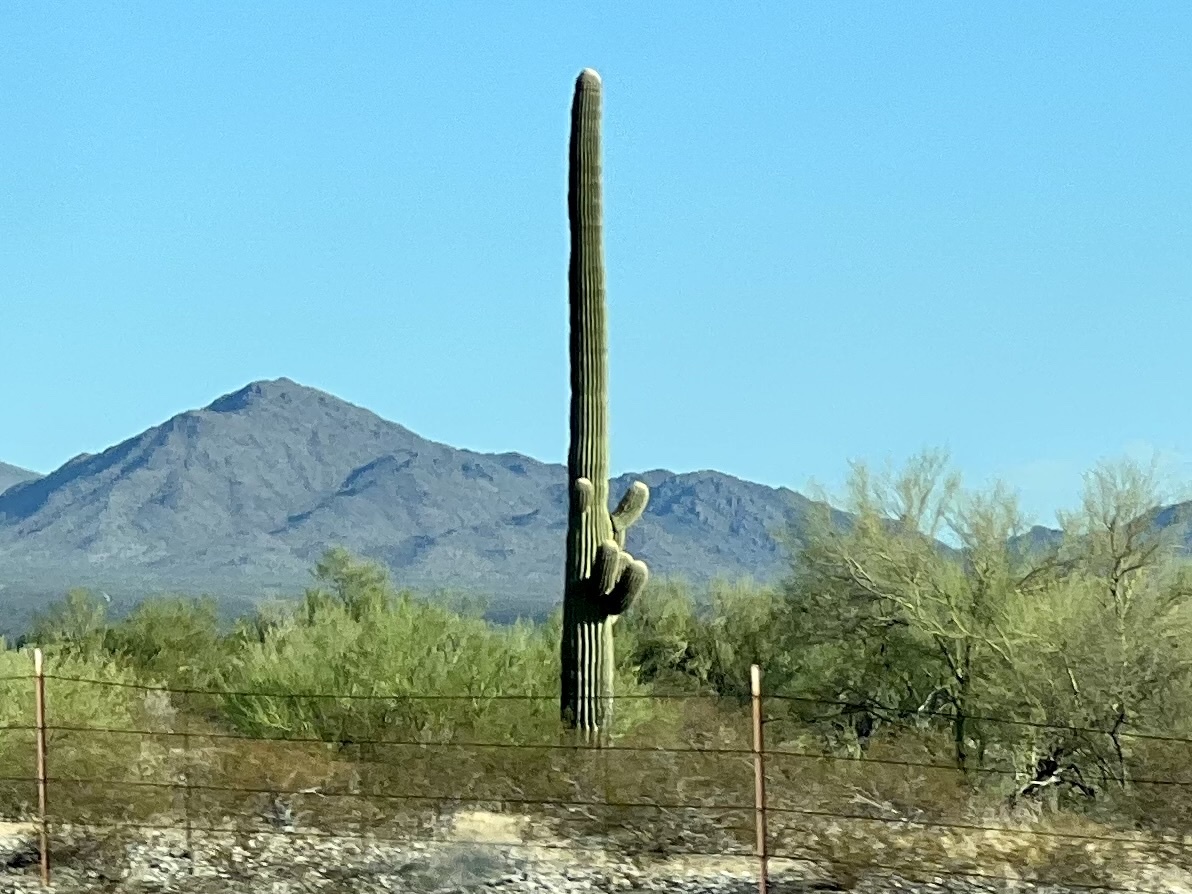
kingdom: Plantae
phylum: Tracheophyta
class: Magnoliopsida
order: Caryophyllales
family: Cactaceae
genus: Carnegiea
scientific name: Carnegiea gigantea
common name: Saguaro
